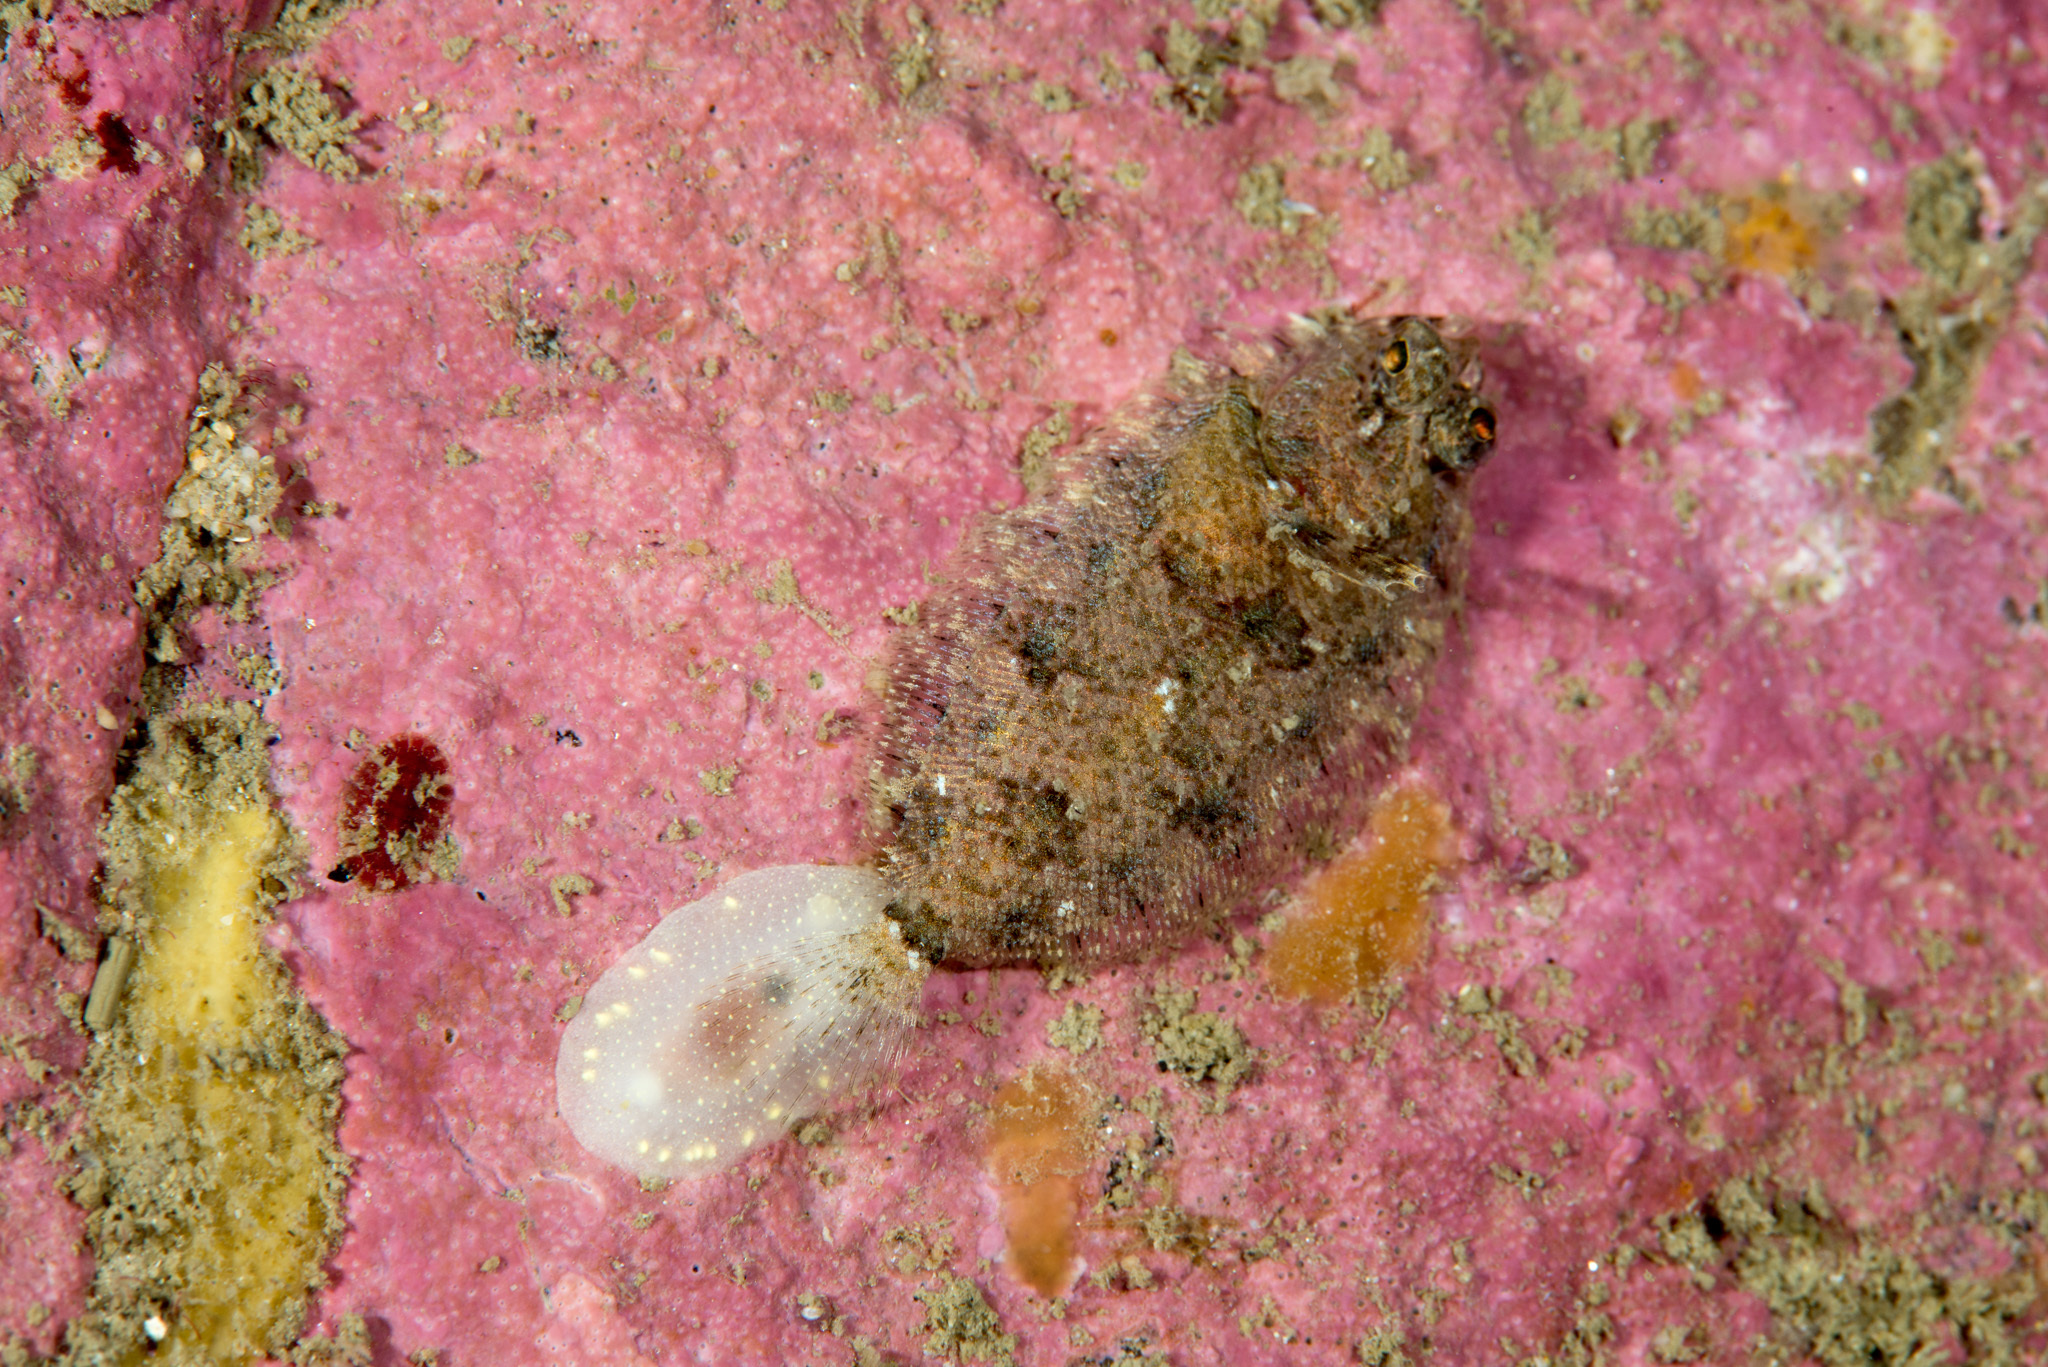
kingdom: Animalia
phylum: Chordata
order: Pleuronectiformes
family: Scophthalmidae
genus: Phrynorhombus
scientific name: Phrynorhombus norvegicus
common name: Norwegian topknot
